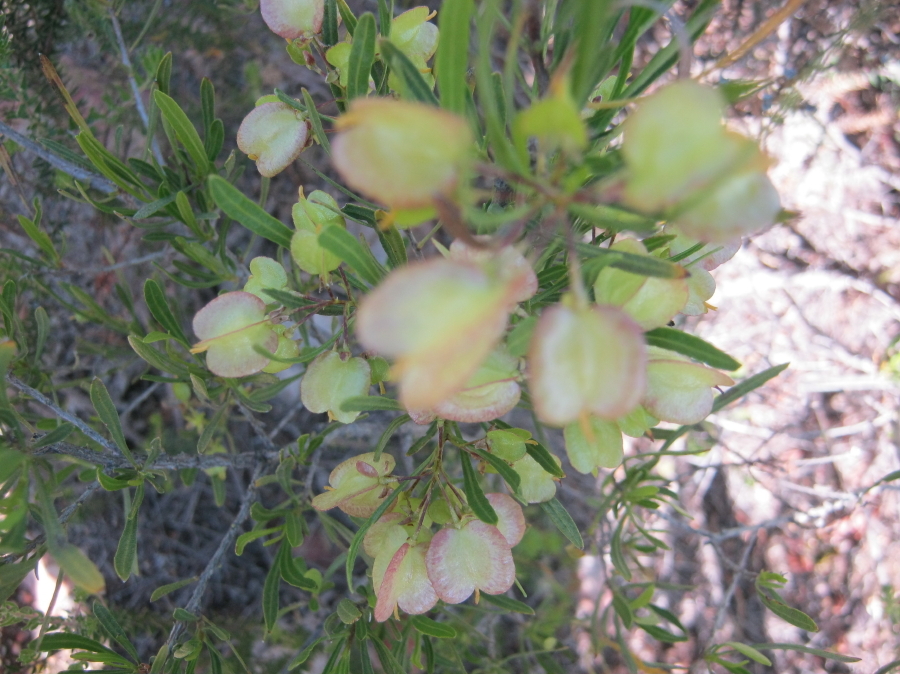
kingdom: Plantae
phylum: Tracheophyta
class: Magnoliopsida
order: Sapindales
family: Sapindaceae
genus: Dodonaea
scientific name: Dodonaea viscosa
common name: Hopbush
